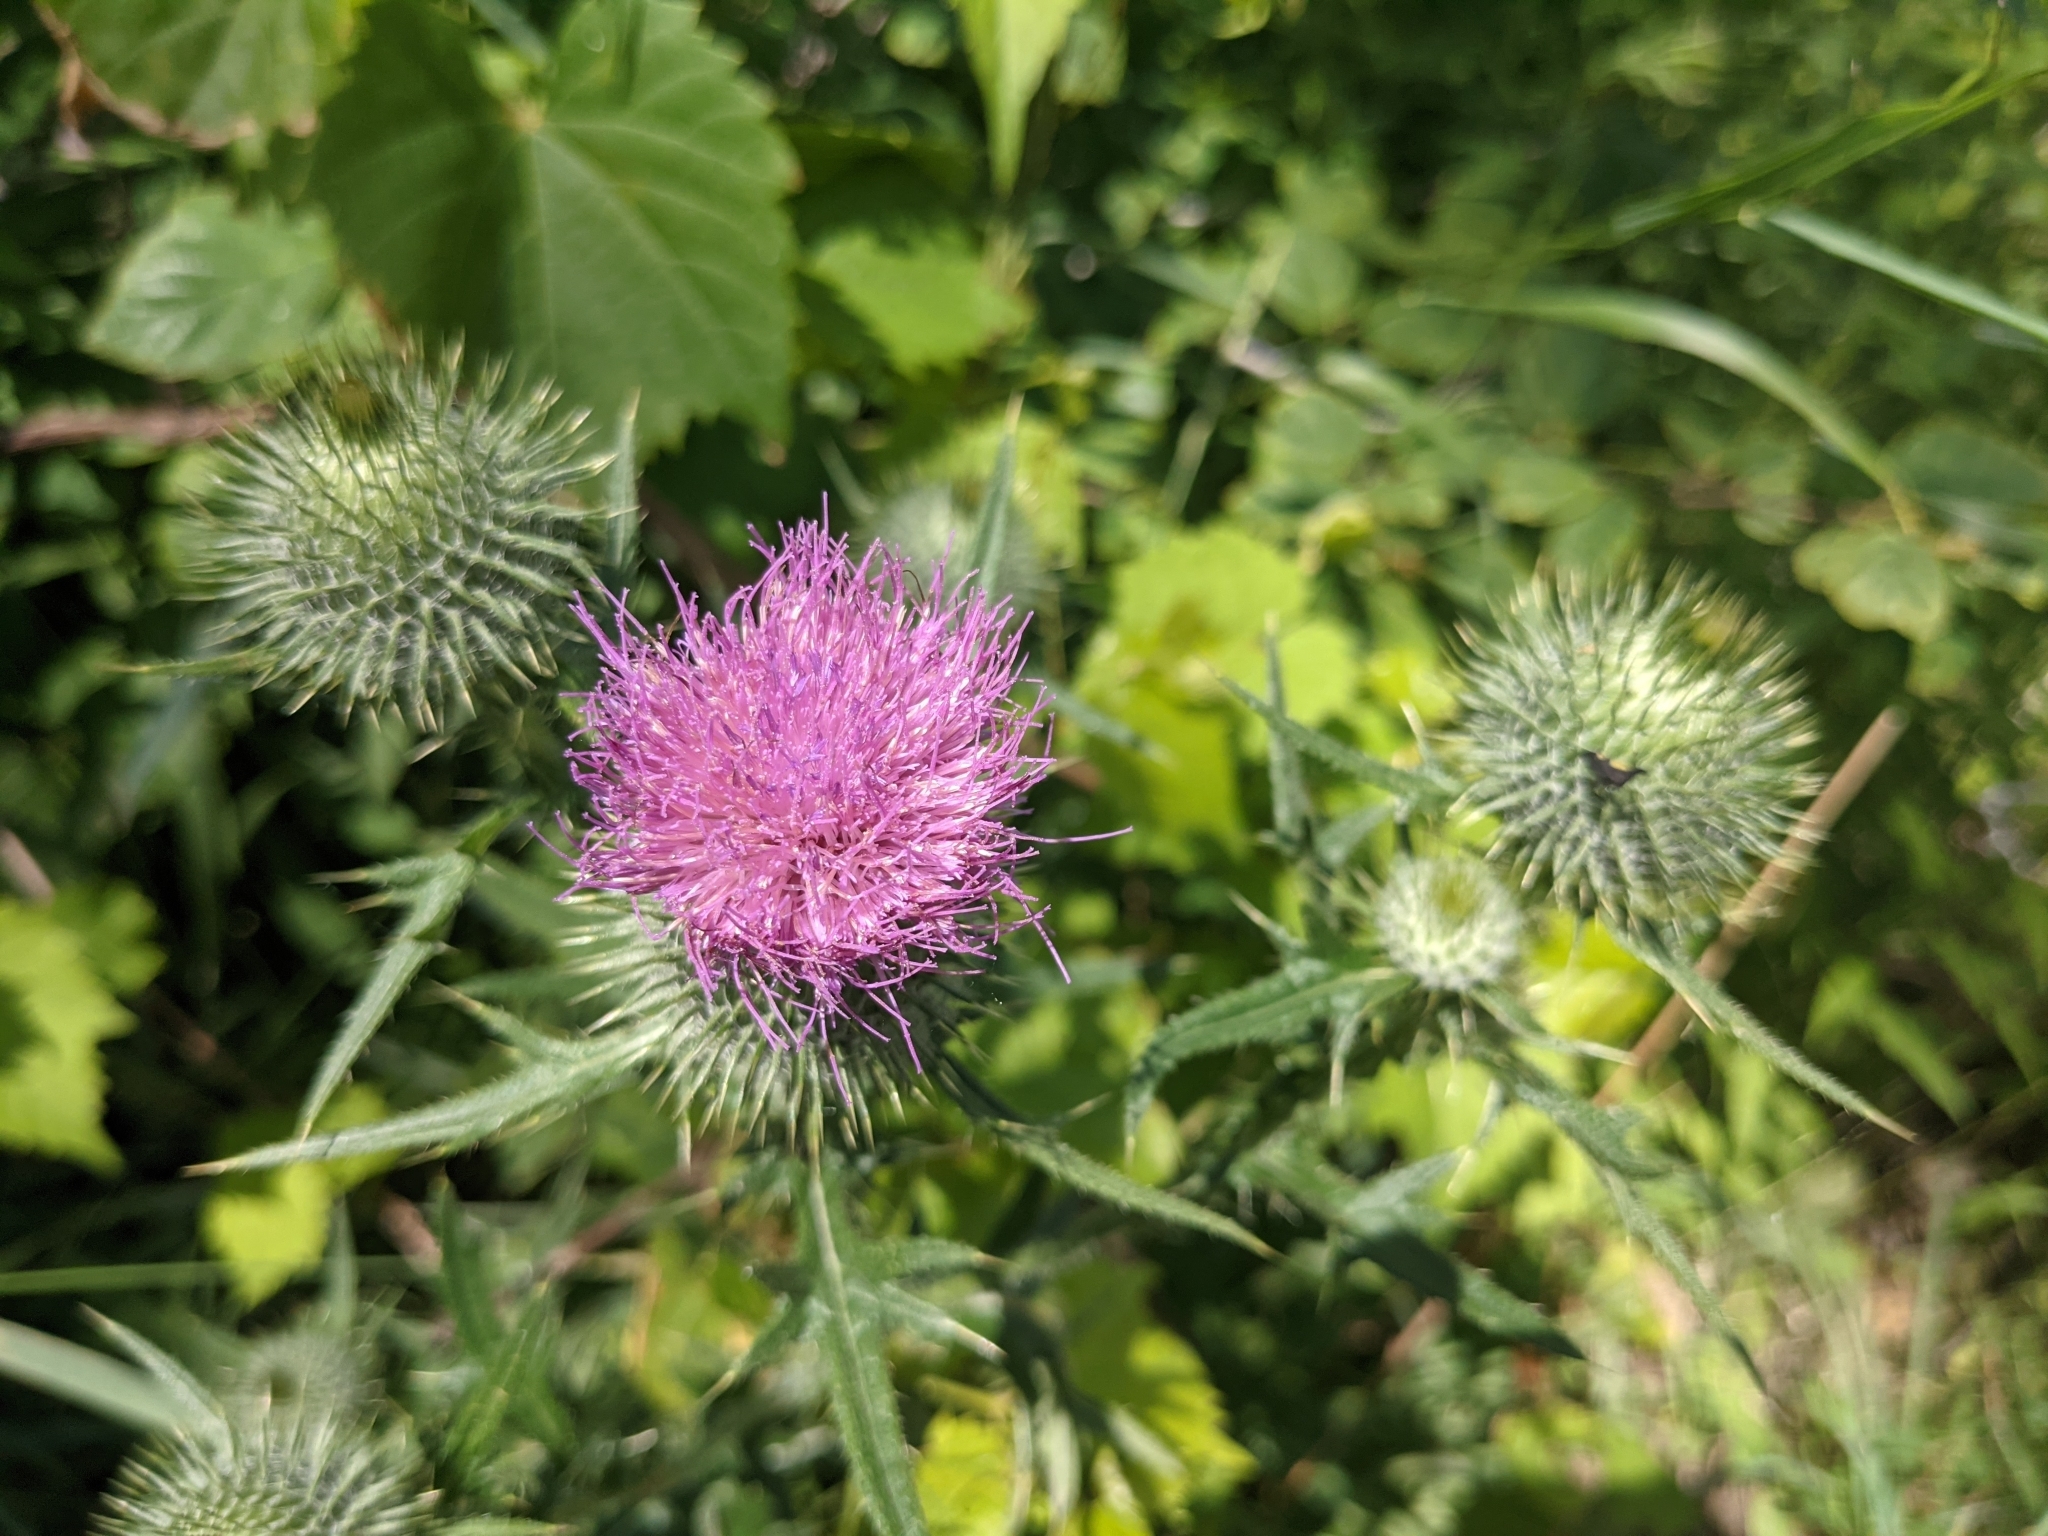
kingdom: Plantae
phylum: Tracheophyta
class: Magnoliopsida
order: Asterales
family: Asteraceae
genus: Cirsium
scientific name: Cirsium vulgare
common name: Bull thistle
